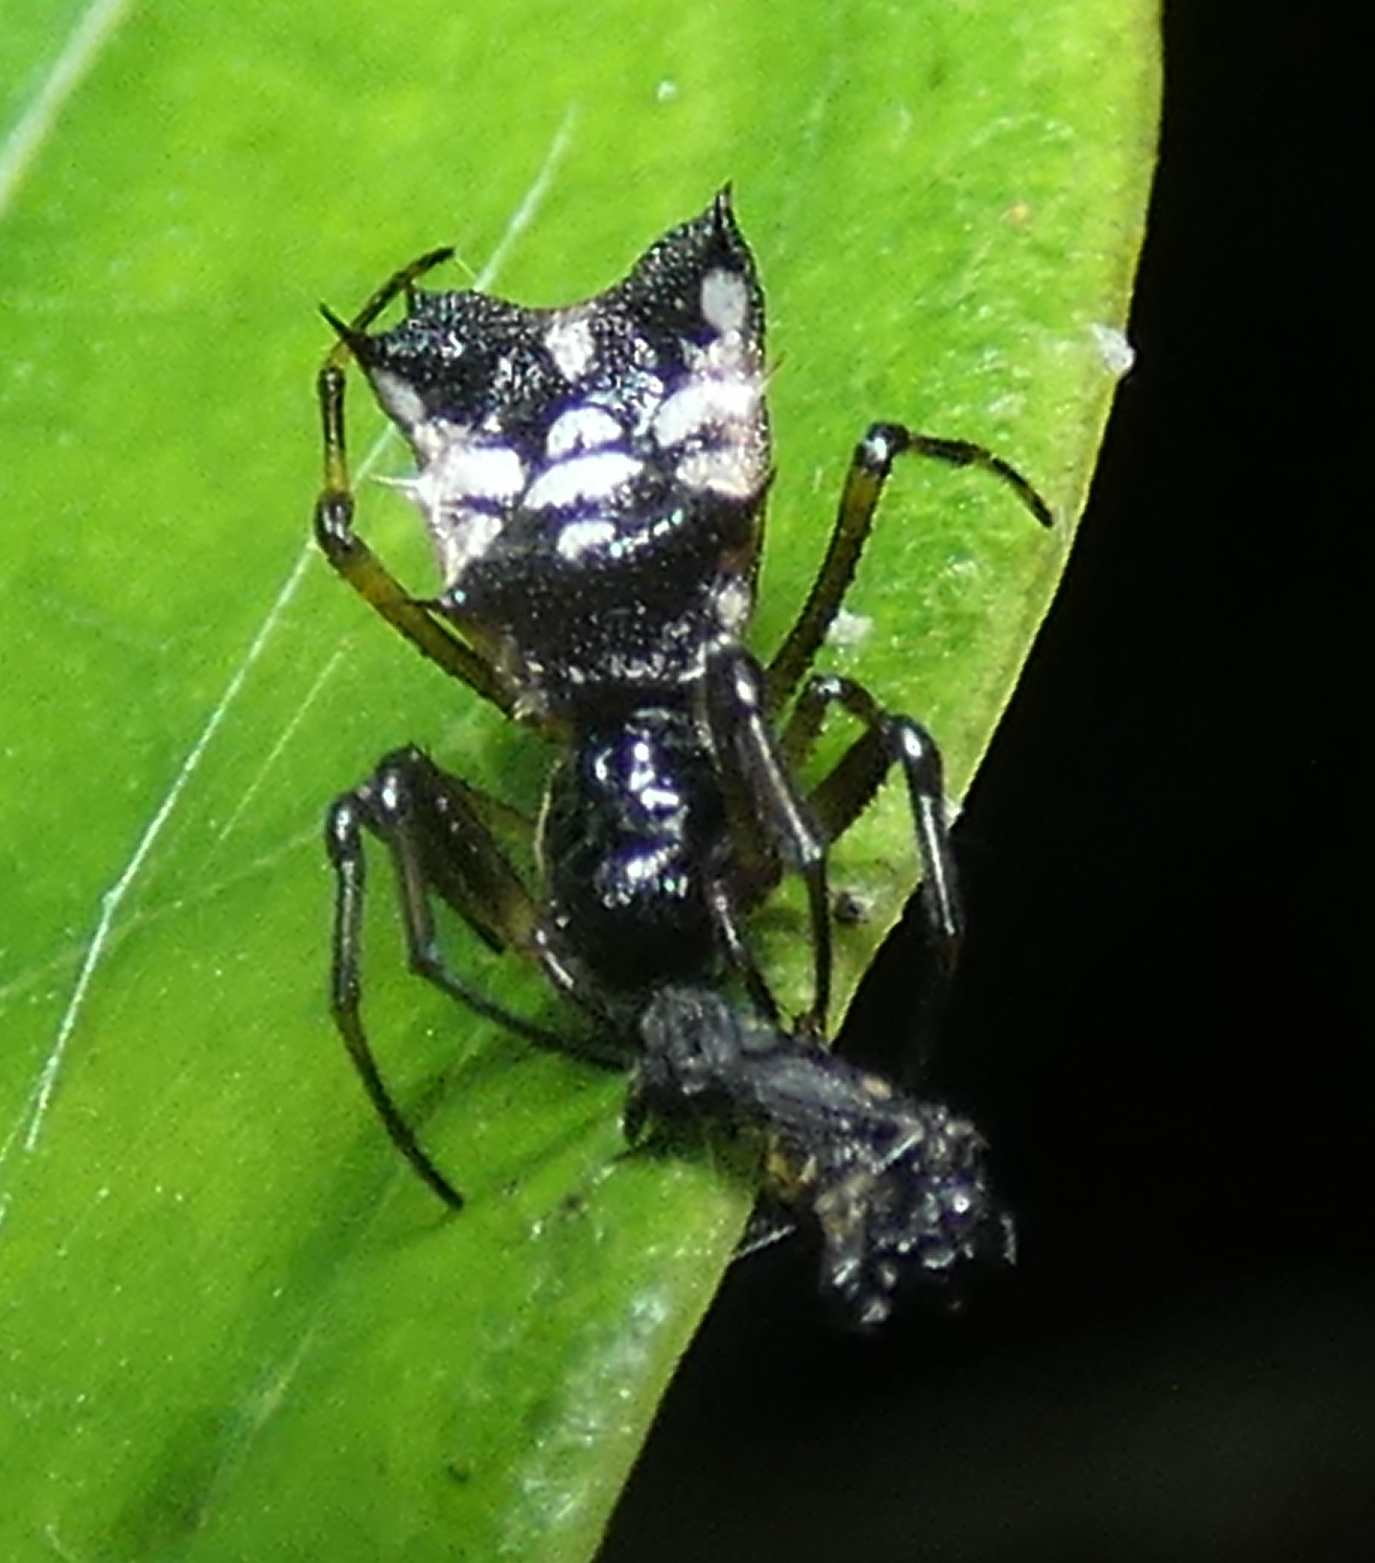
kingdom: Animalia
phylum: Arthropoda
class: Arachnida
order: Araneae
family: Araneidae
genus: Micrathena
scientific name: Micrathena picta
